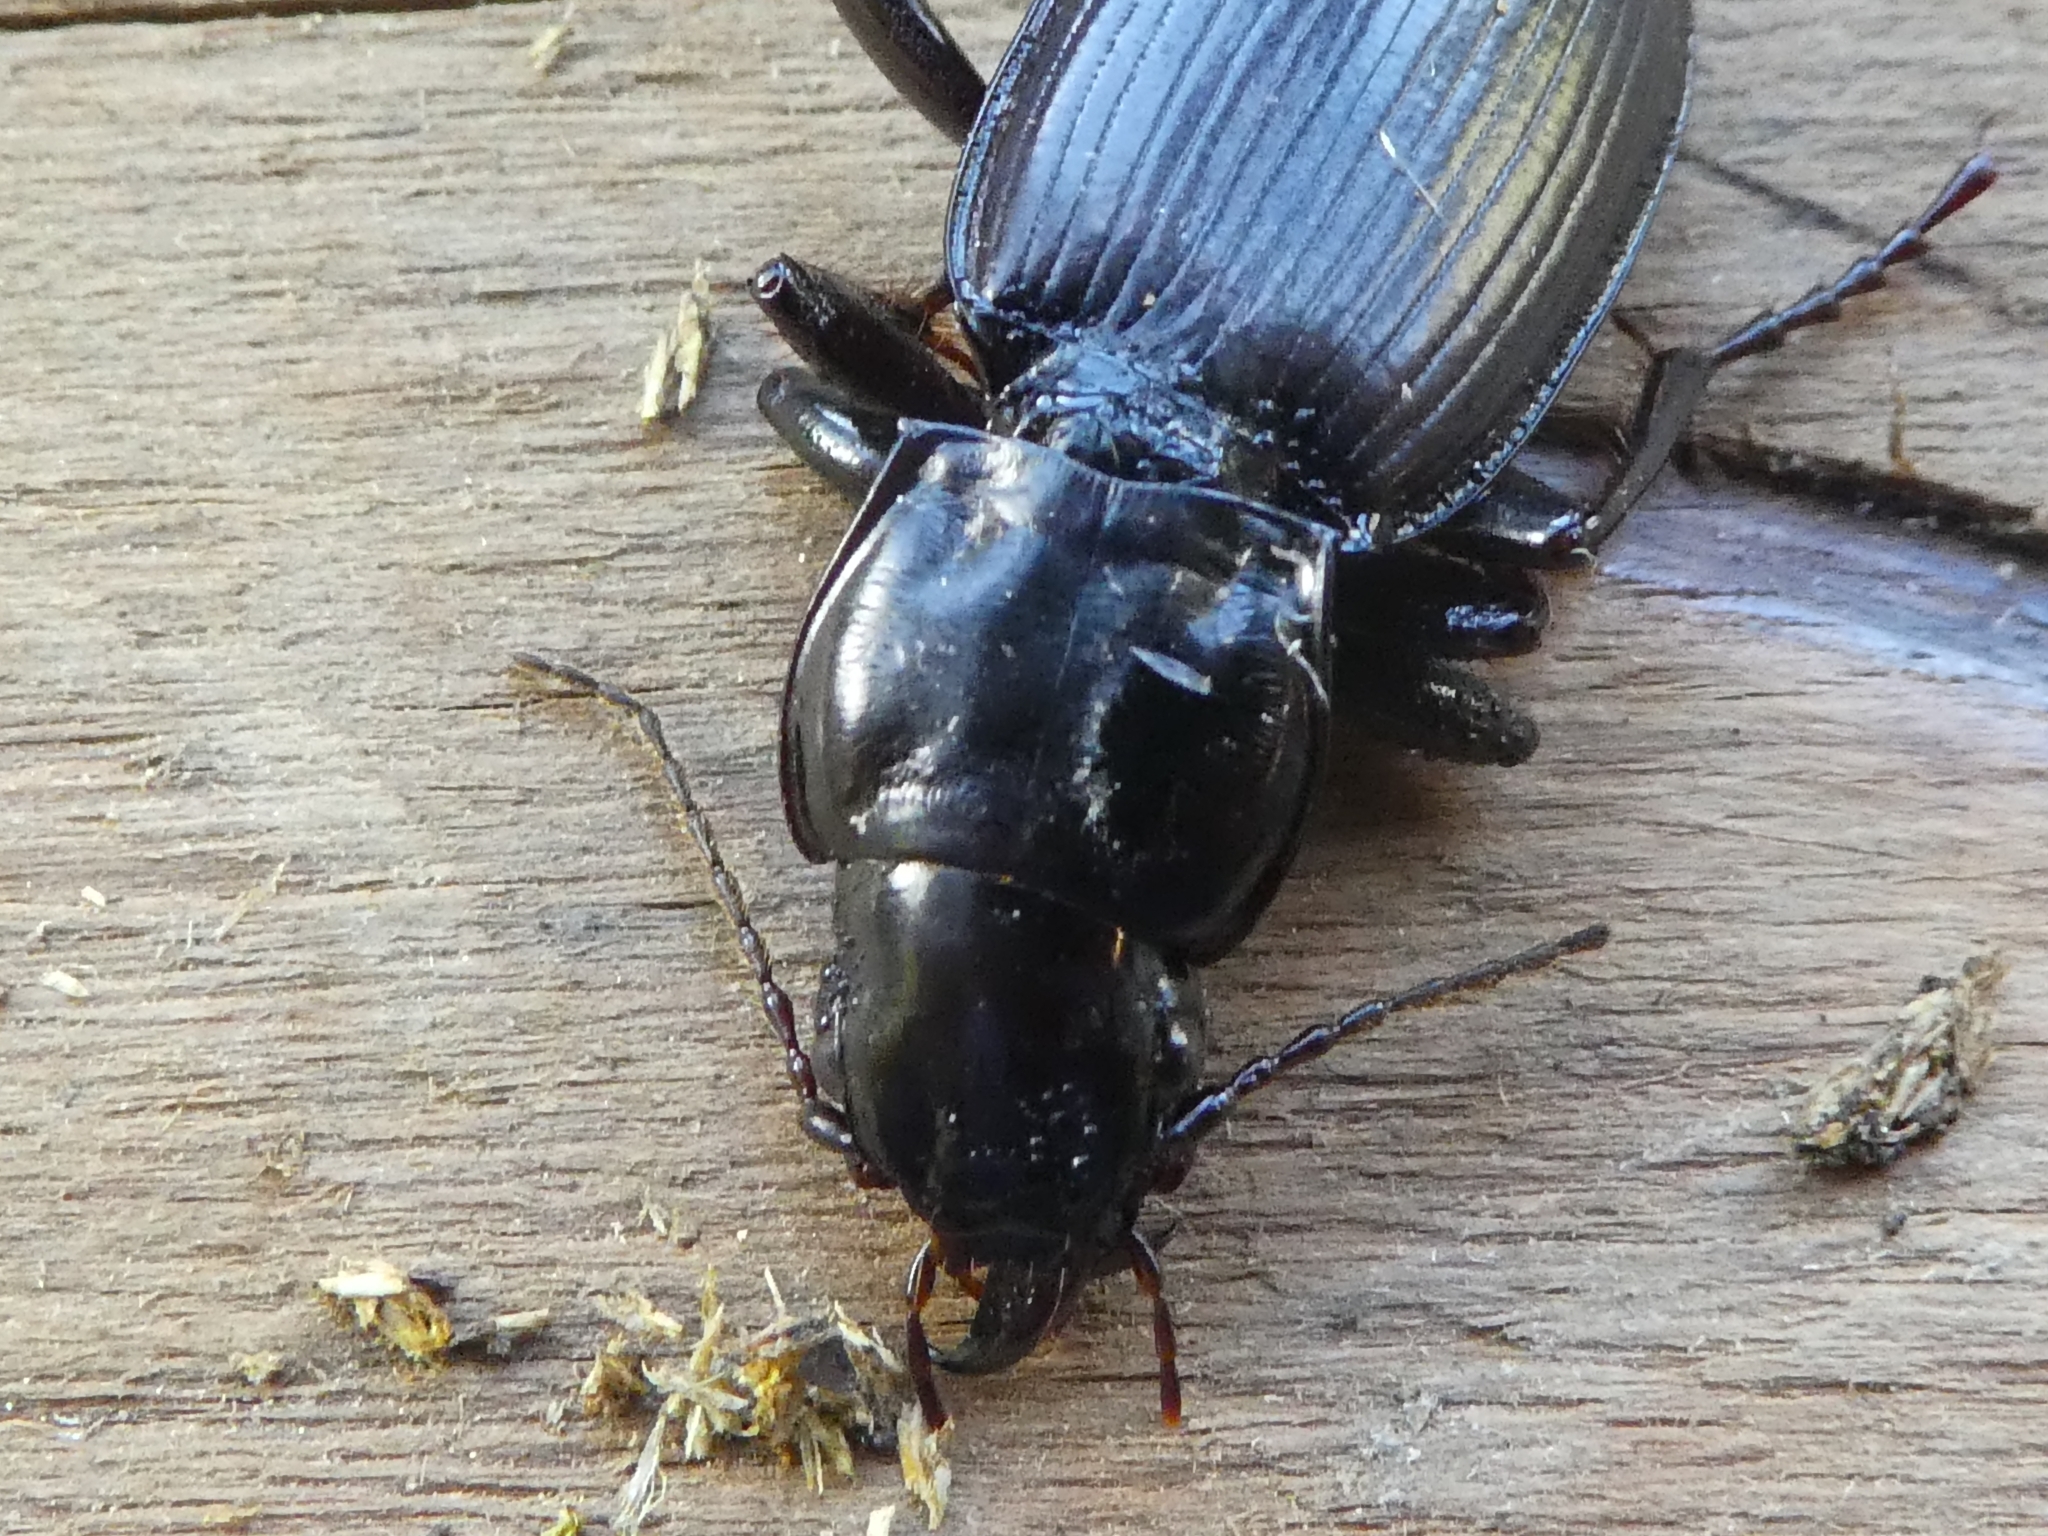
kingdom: Animalia
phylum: Arthropoda
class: Insecta
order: Coleoptera
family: Carabidae
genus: Plocamostethus
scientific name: Plocamostethus planiusculus
